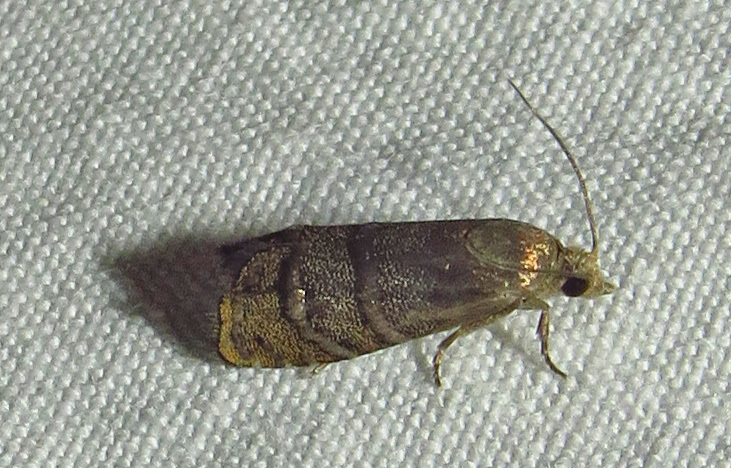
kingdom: Animalia
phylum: Arthropoda
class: Insecta
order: Lepidoptera
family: Tortricidae
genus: Cydia
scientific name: Cydia toreuta
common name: Eastern pine seedworm moth
